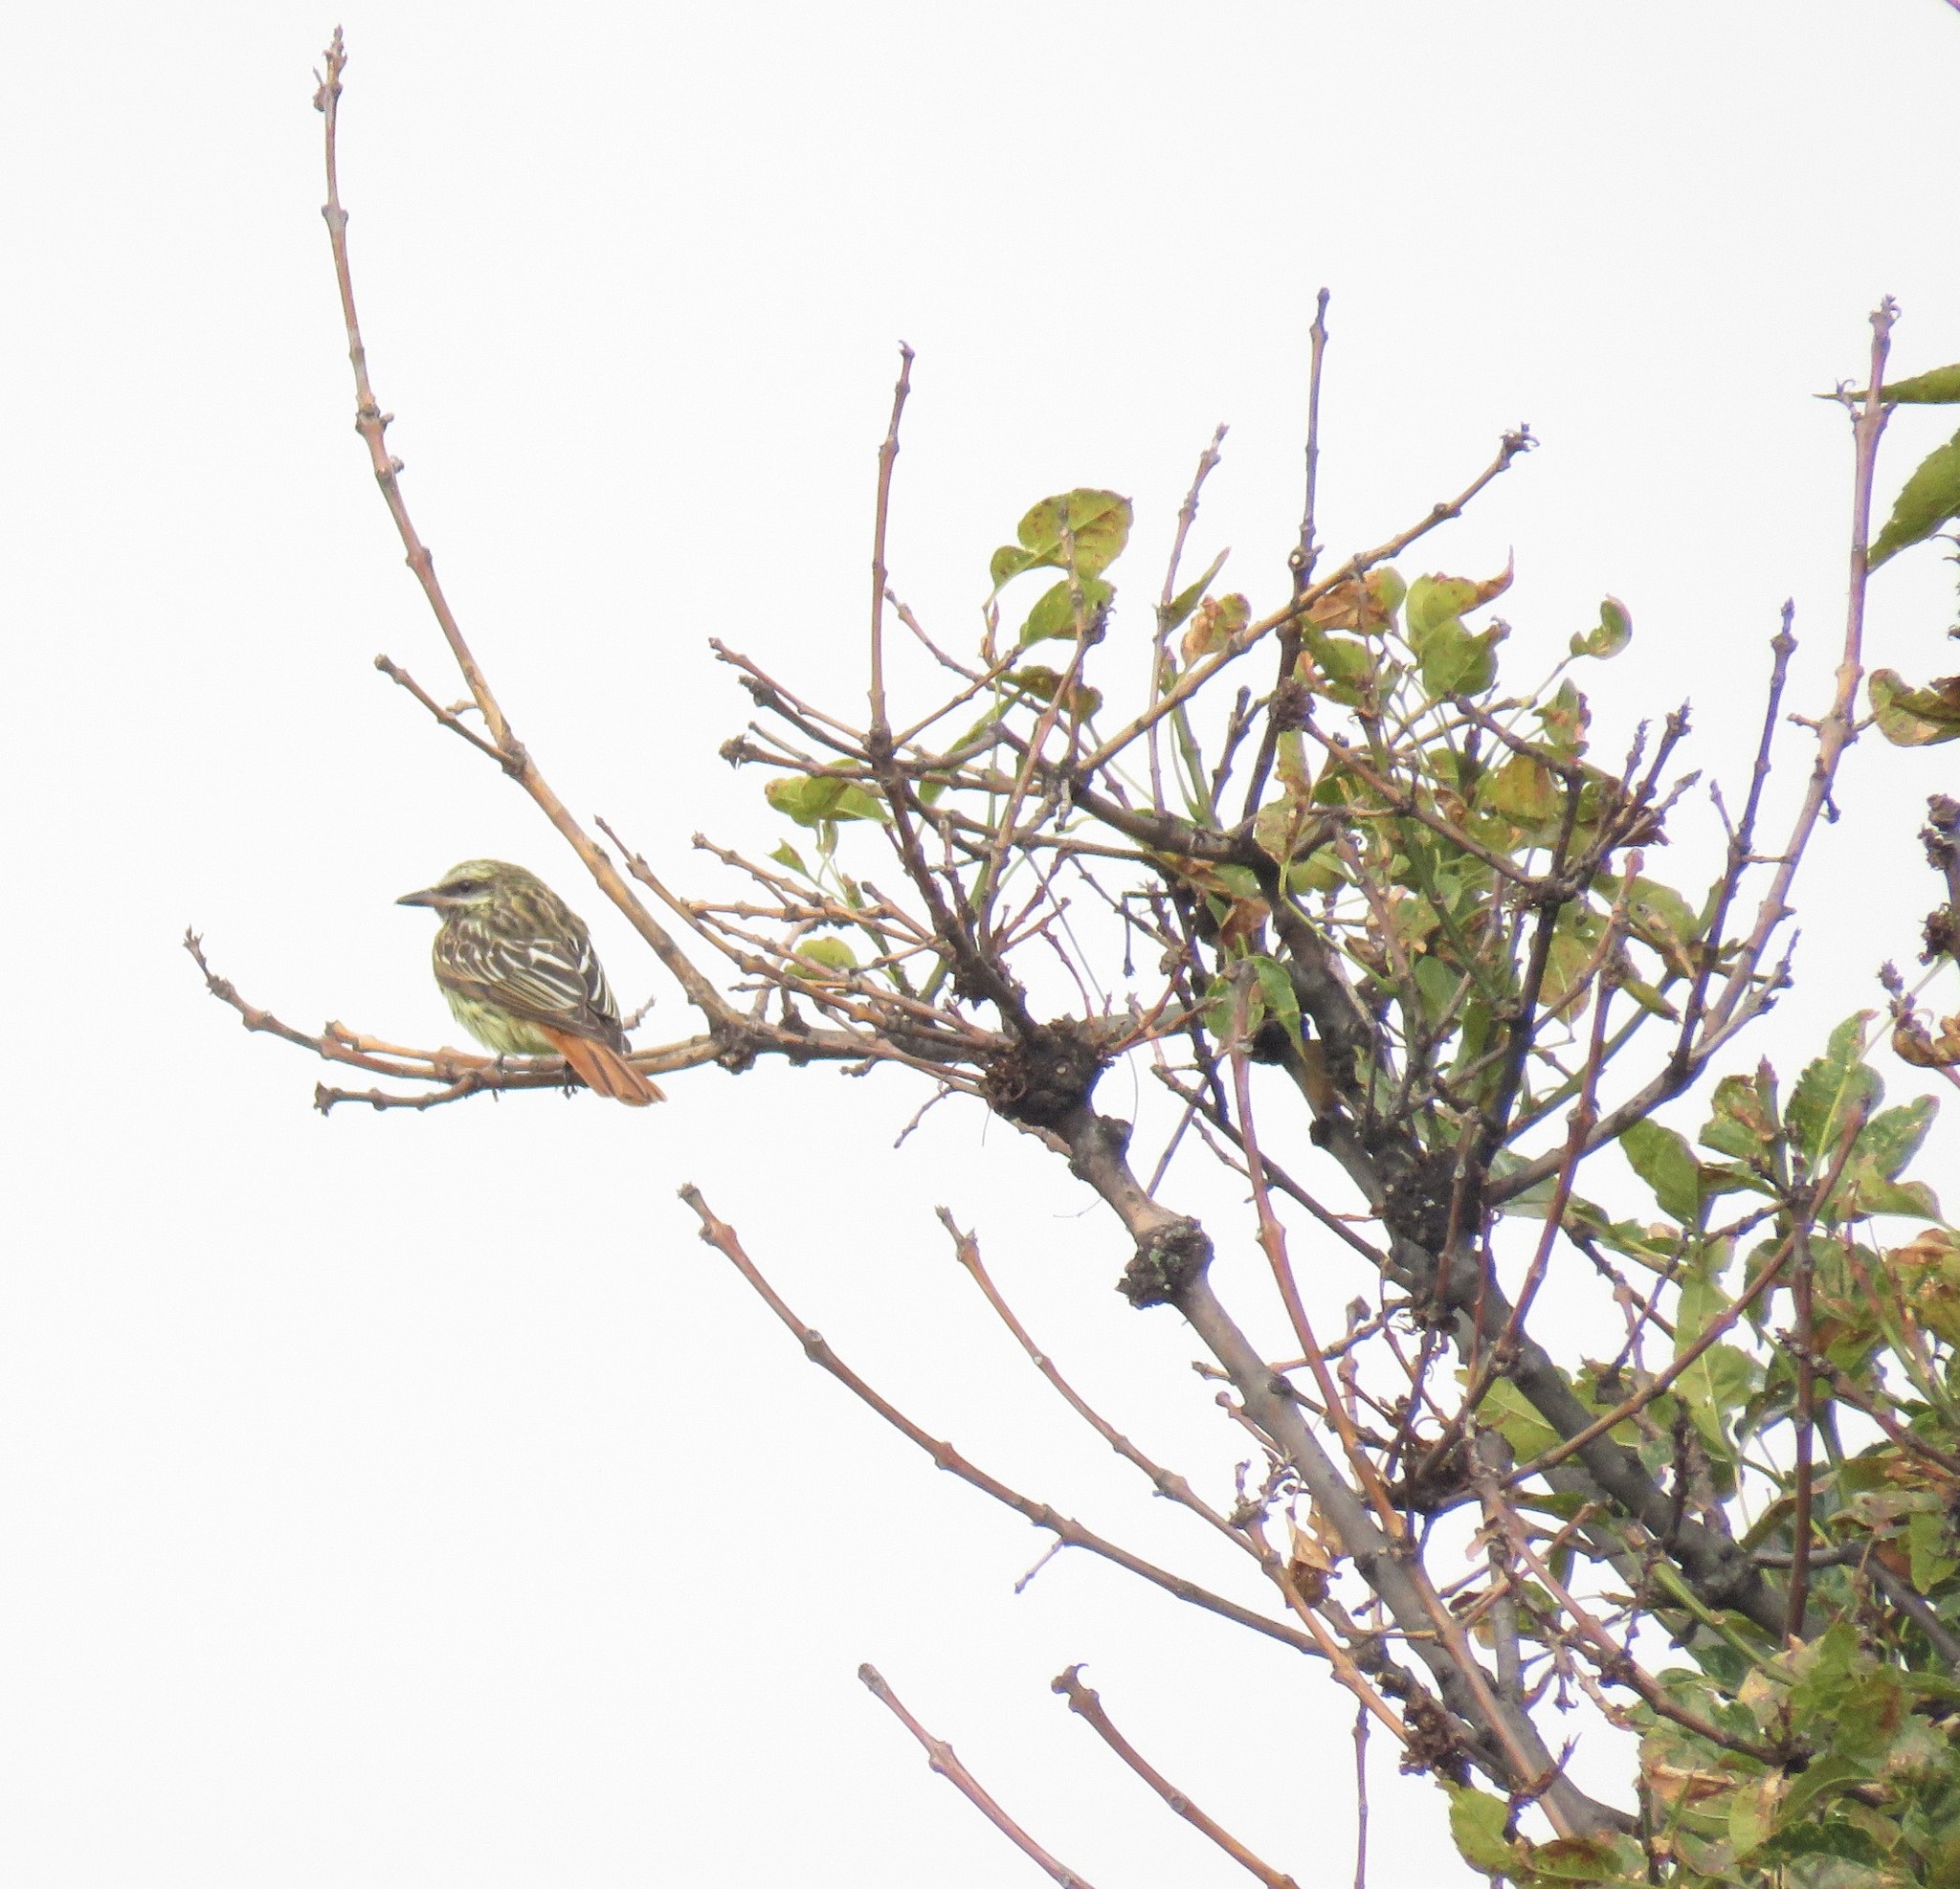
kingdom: Animalia
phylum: Chordata
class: Aves
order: Passeriformes
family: Tyrannidae
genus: Myiodynastes
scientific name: Myiodynastes luteiventris
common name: Sulphur-bellied flycatcher
